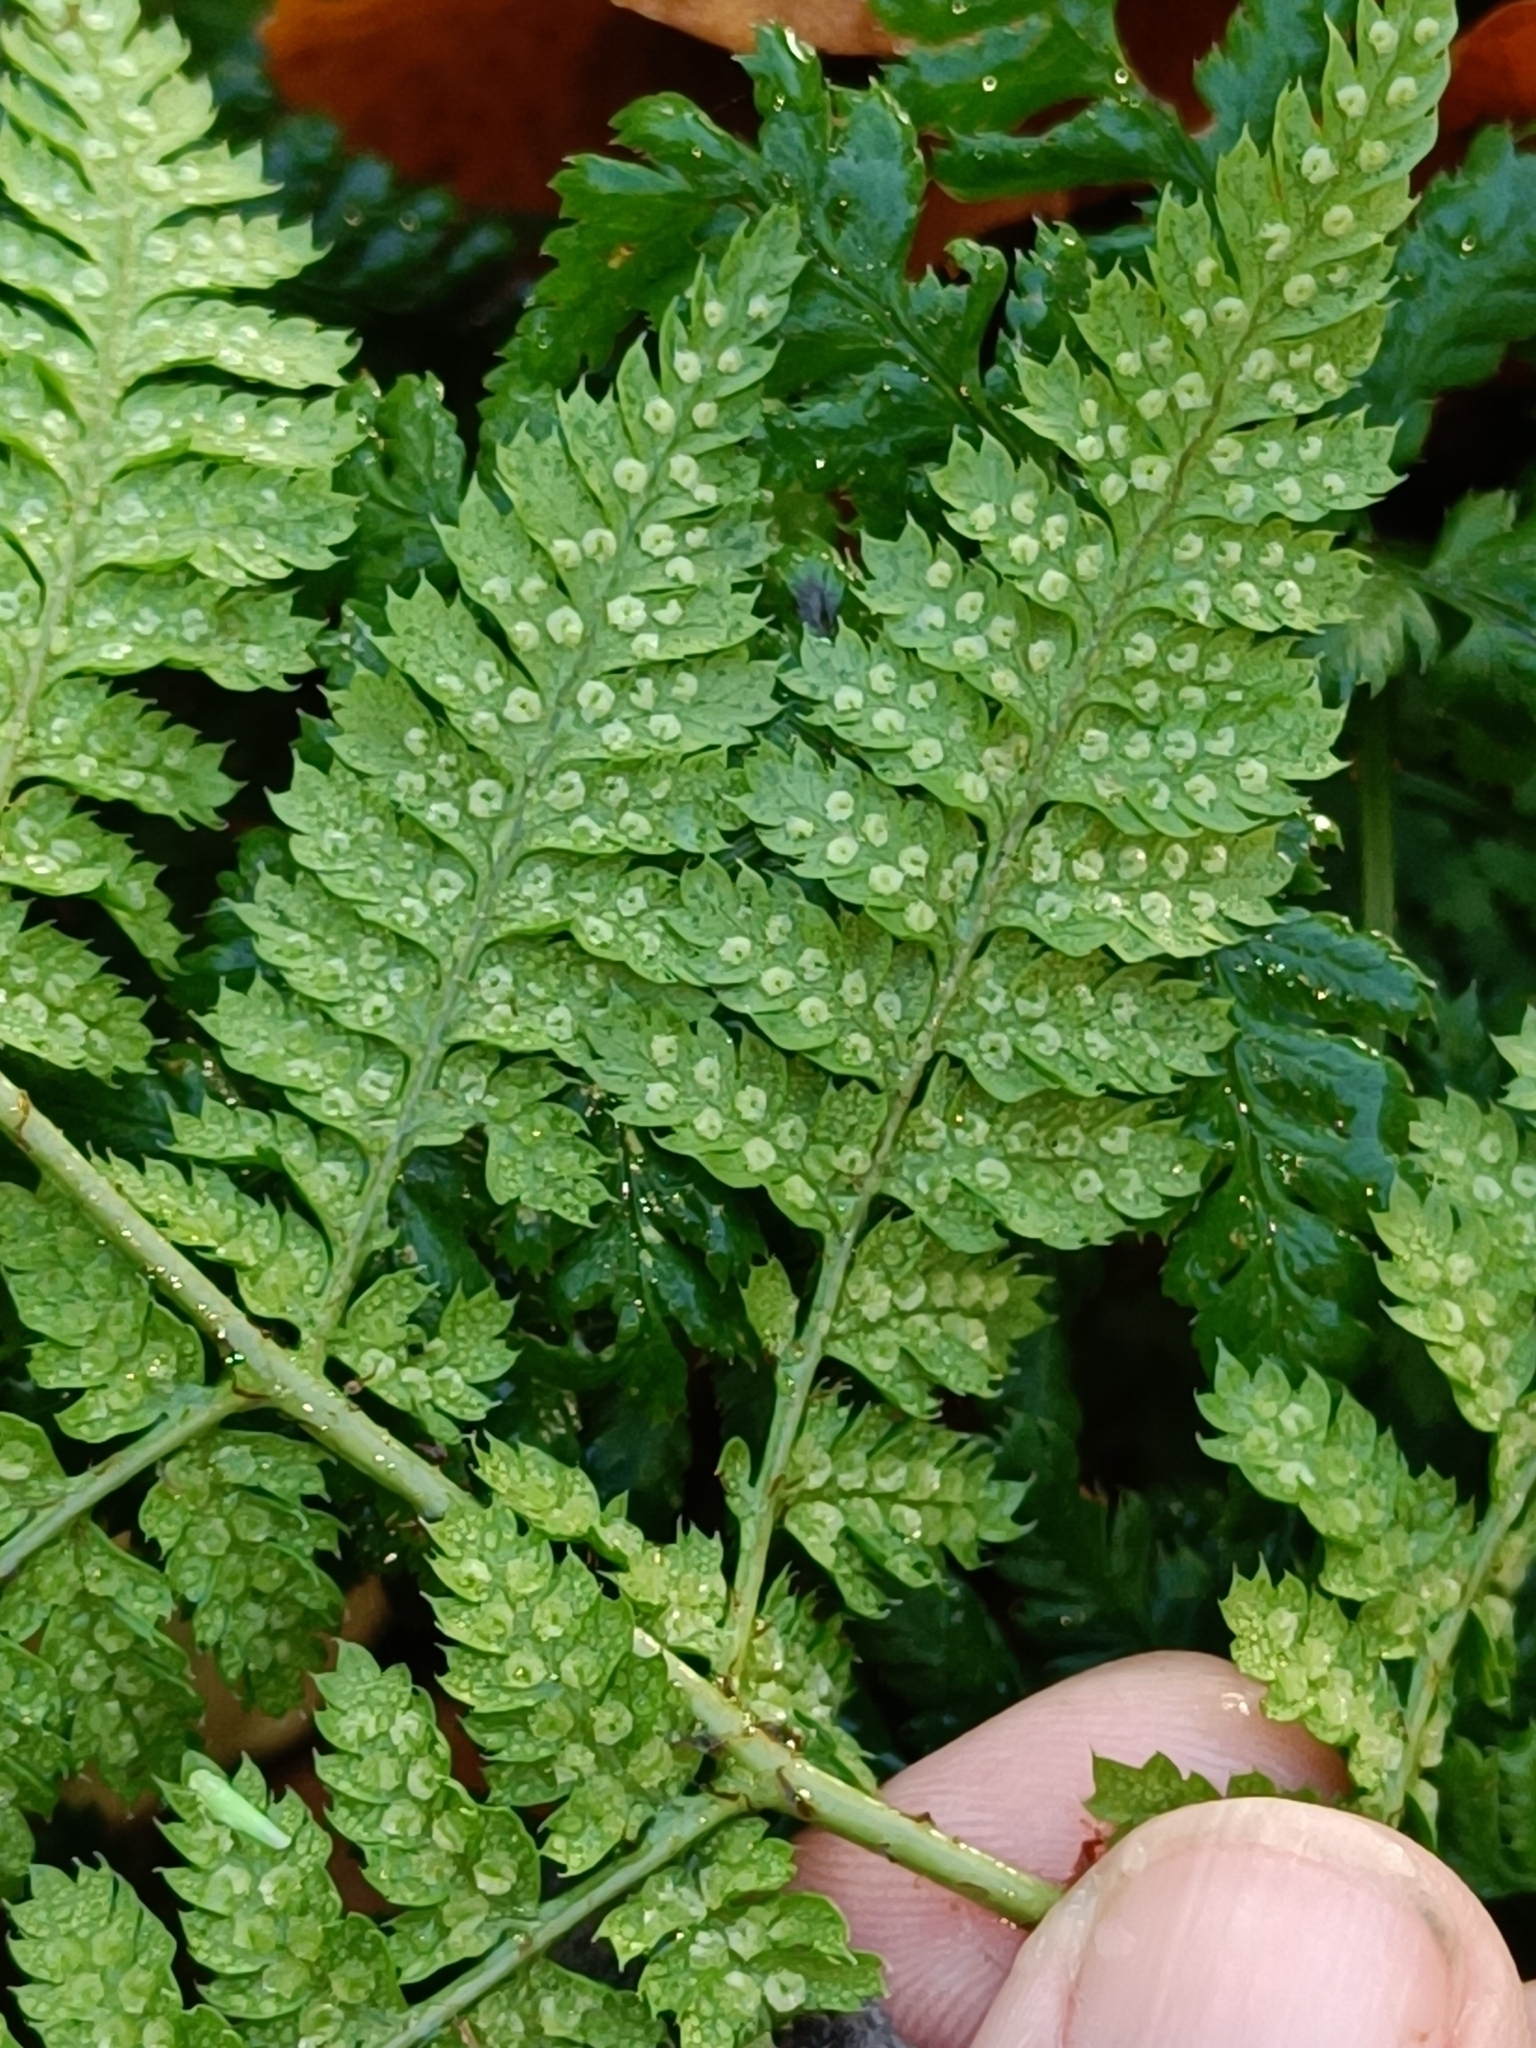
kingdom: Plantae
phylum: Tracheophyta
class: Polypodiopsida
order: Polypodiales
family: Dryopteridaceae
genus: Dryopteris
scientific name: Dryopteris dilatata
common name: Broad buckler-fern
